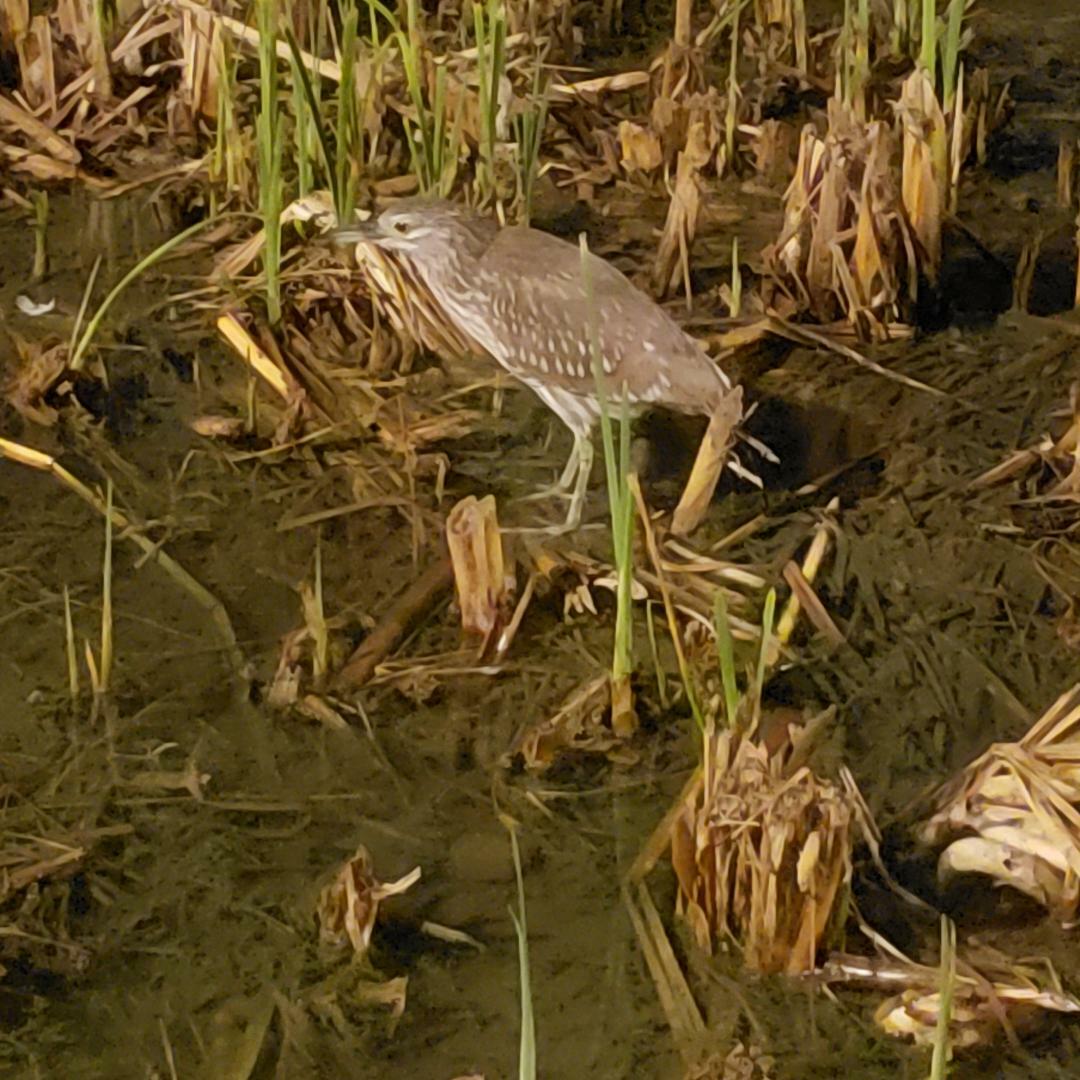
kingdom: Animalia
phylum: Chordata
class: Aves
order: Pelecaniformes
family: Ardeidae
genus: Nycticorax
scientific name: Nycticorax nycticorax
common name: Black-crowned night heron
